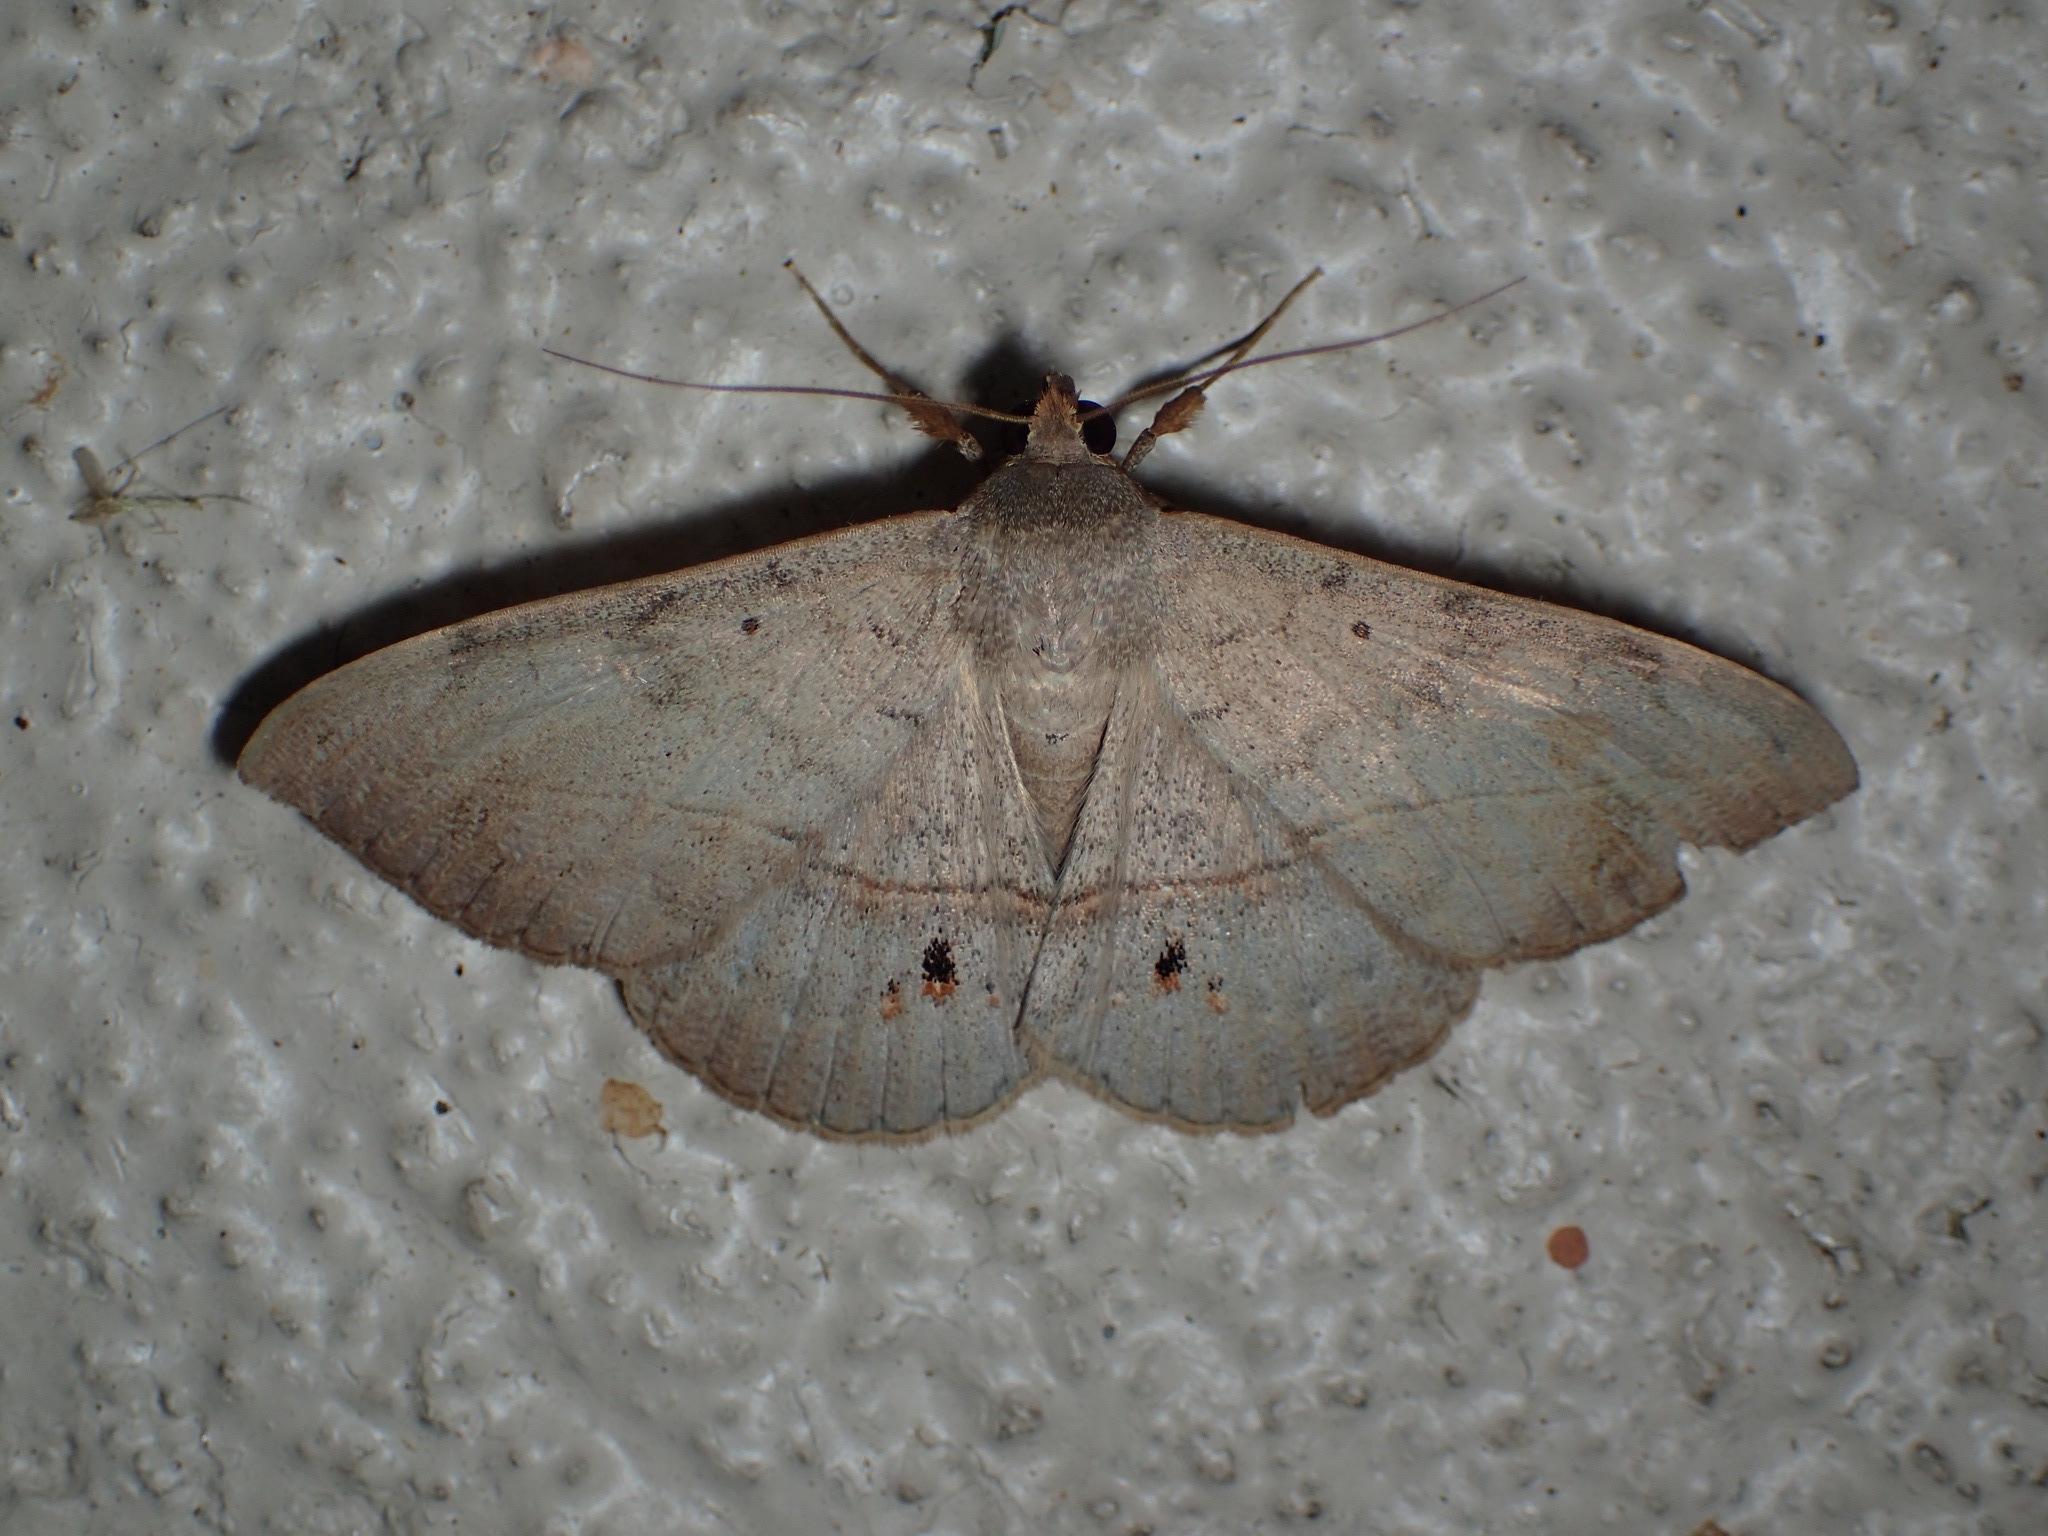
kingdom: Animalia
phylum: Arthropoda
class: Insecta
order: Lepidoptera
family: Erebidae
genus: Anticarsia
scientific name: Anticarsia gemmatalis
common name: Cutworm moth
